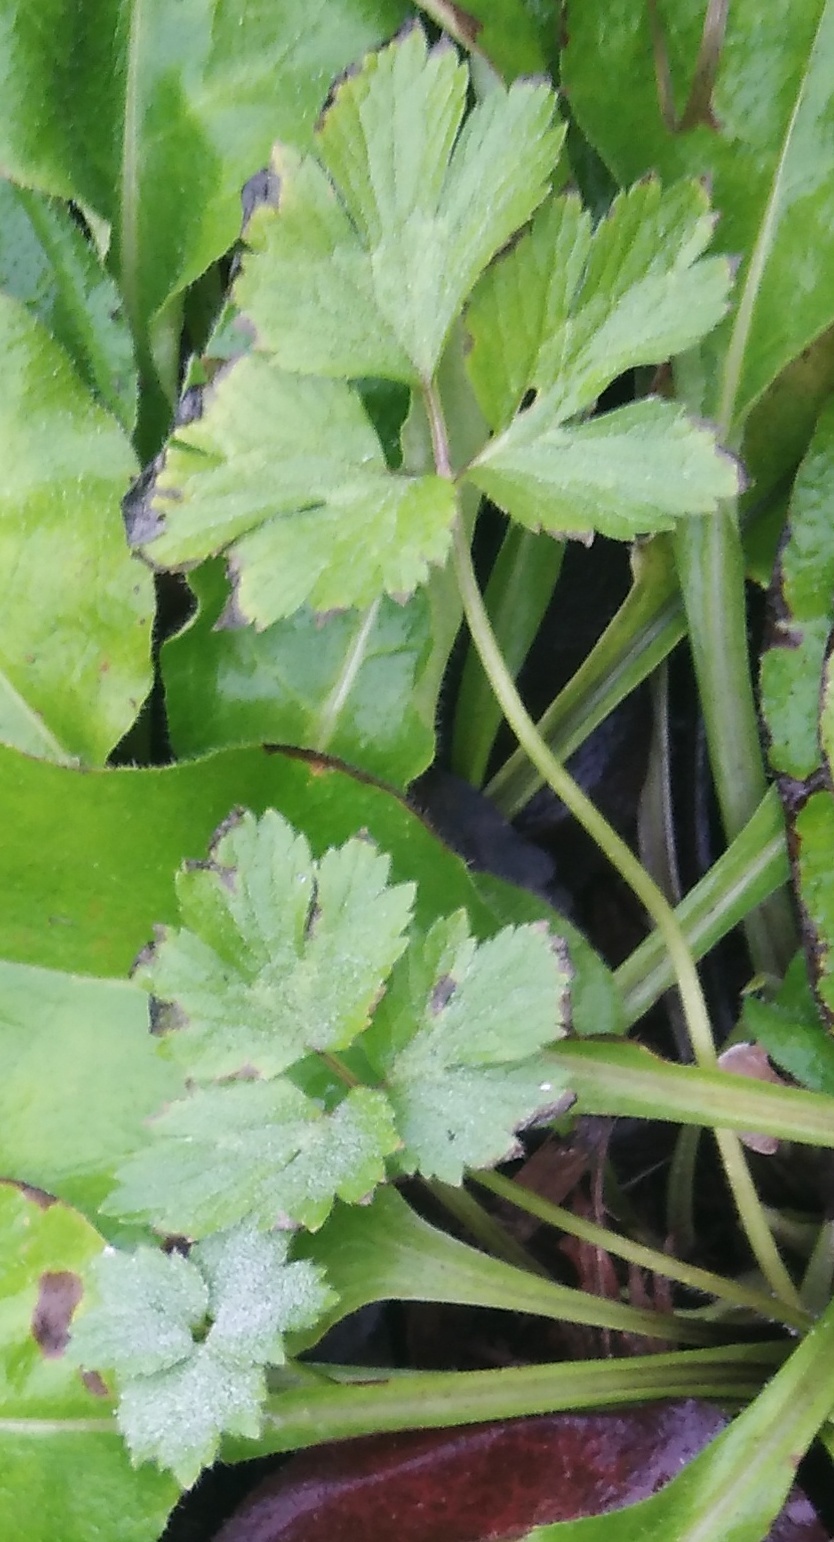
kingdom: Plantae
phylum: Tracheophyta
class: Magnoliopsida
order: Ranunculales
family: Ranunculaceae
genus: Ranunculus
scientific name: Ranunculus repens
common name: Creeping buttercup
